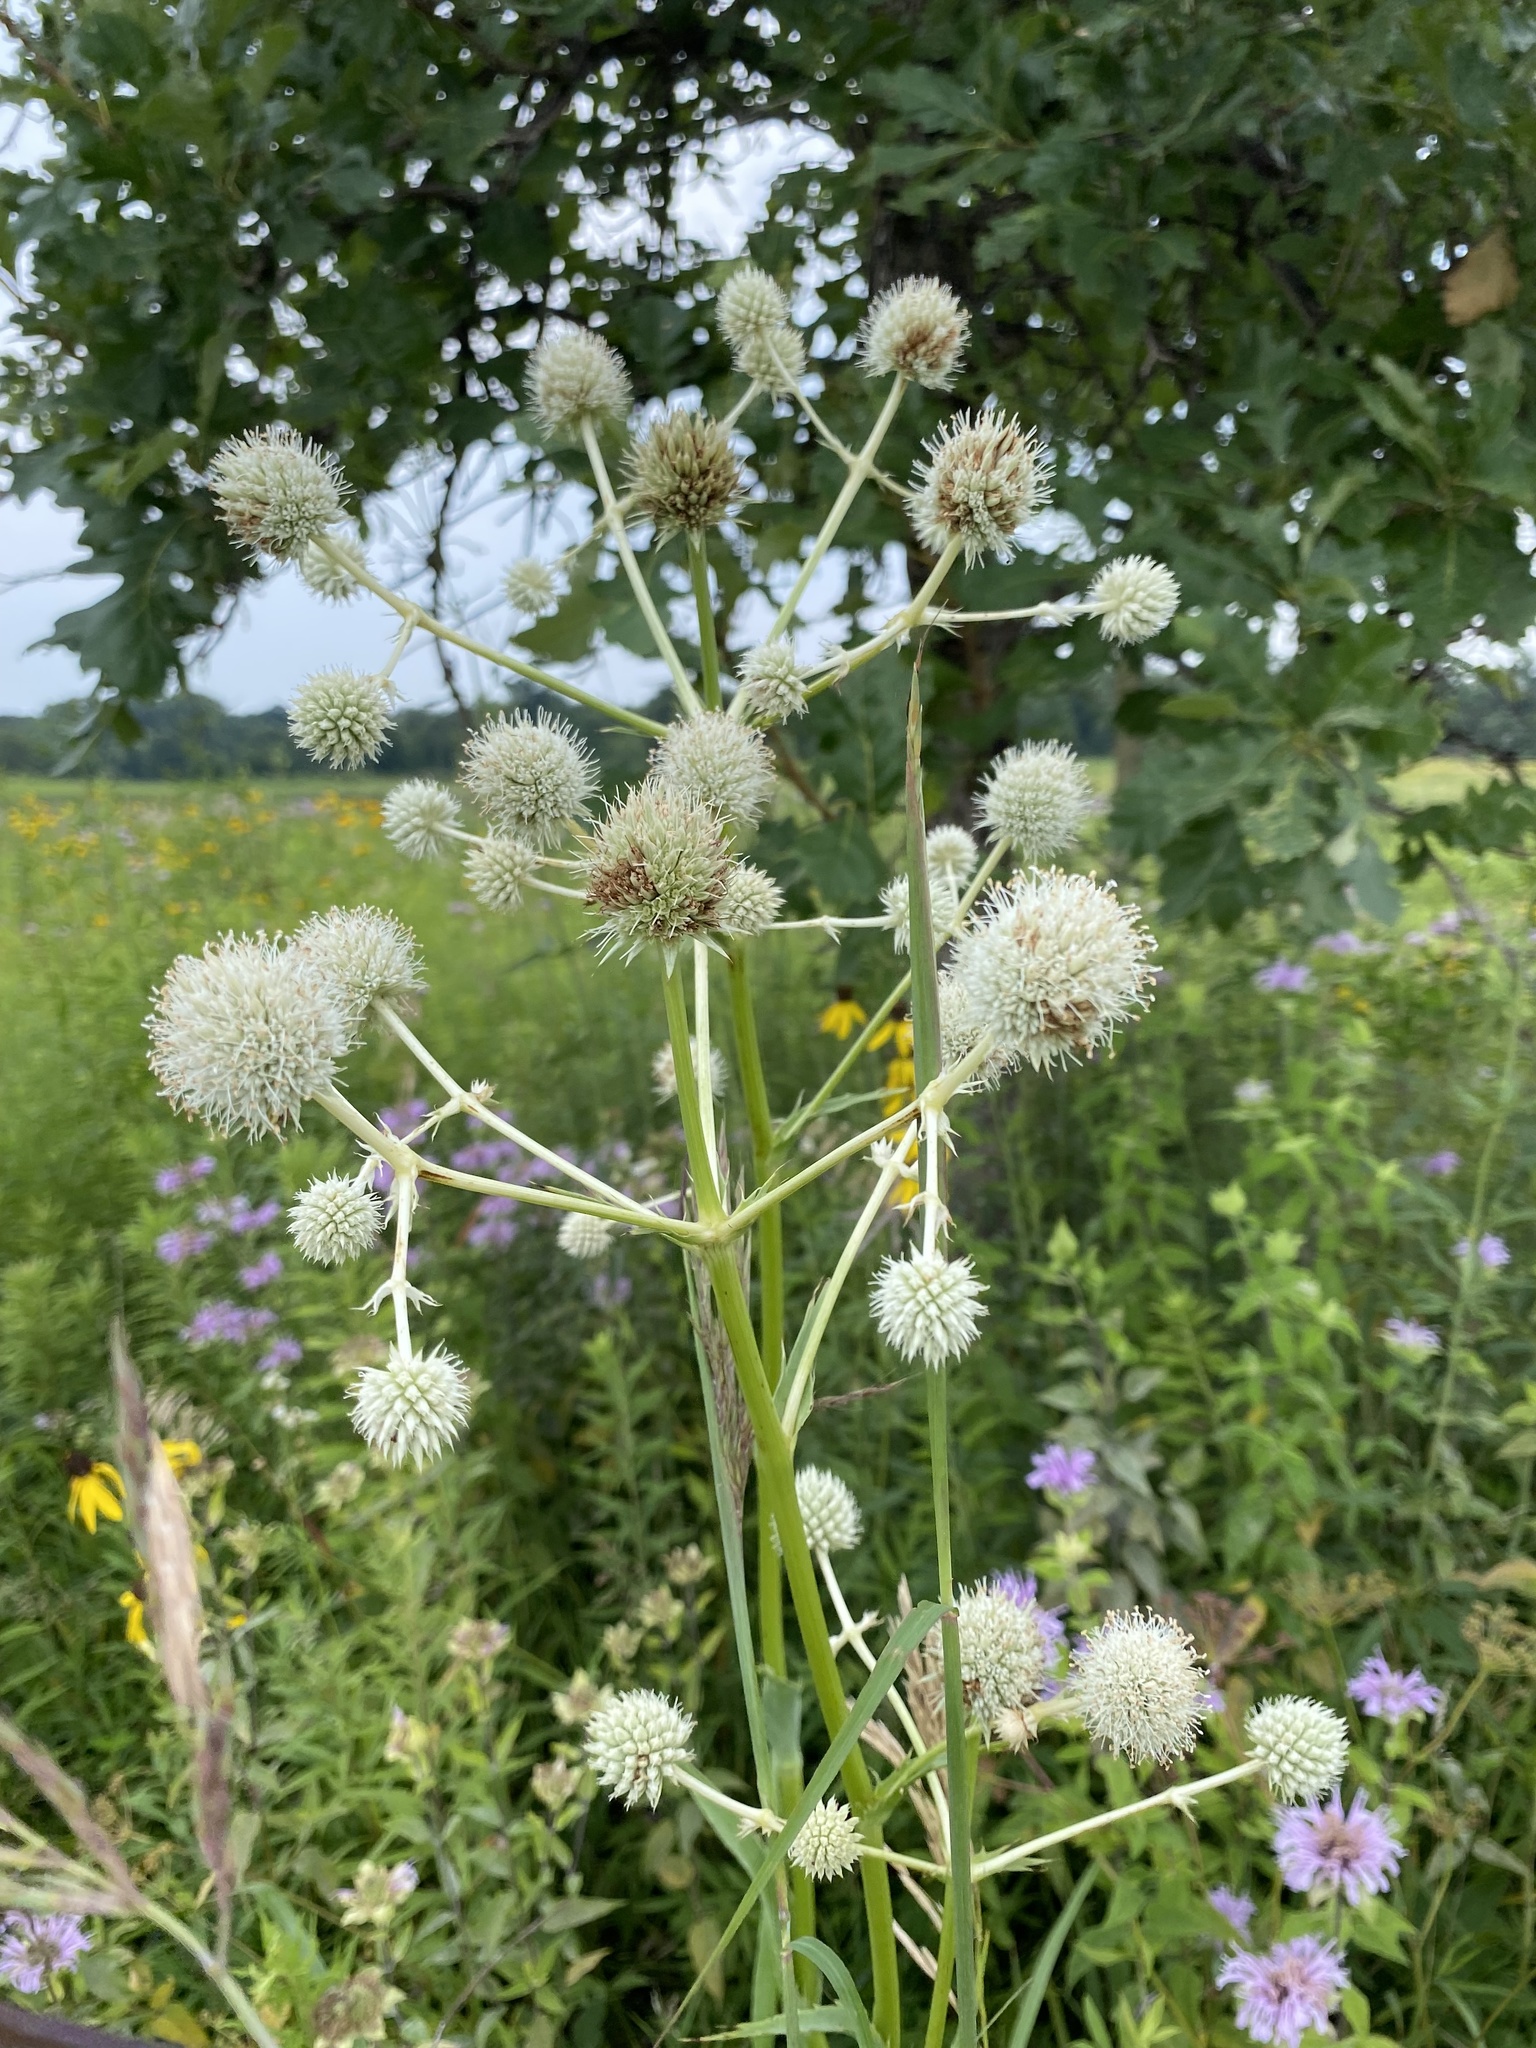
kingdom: Plantae
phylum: Tracheophyta
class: Magnoliopsida
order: Apiales
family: Apiaceae
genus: Eryngium
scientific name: Eryngium yuccifolium
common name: Button eryngo
